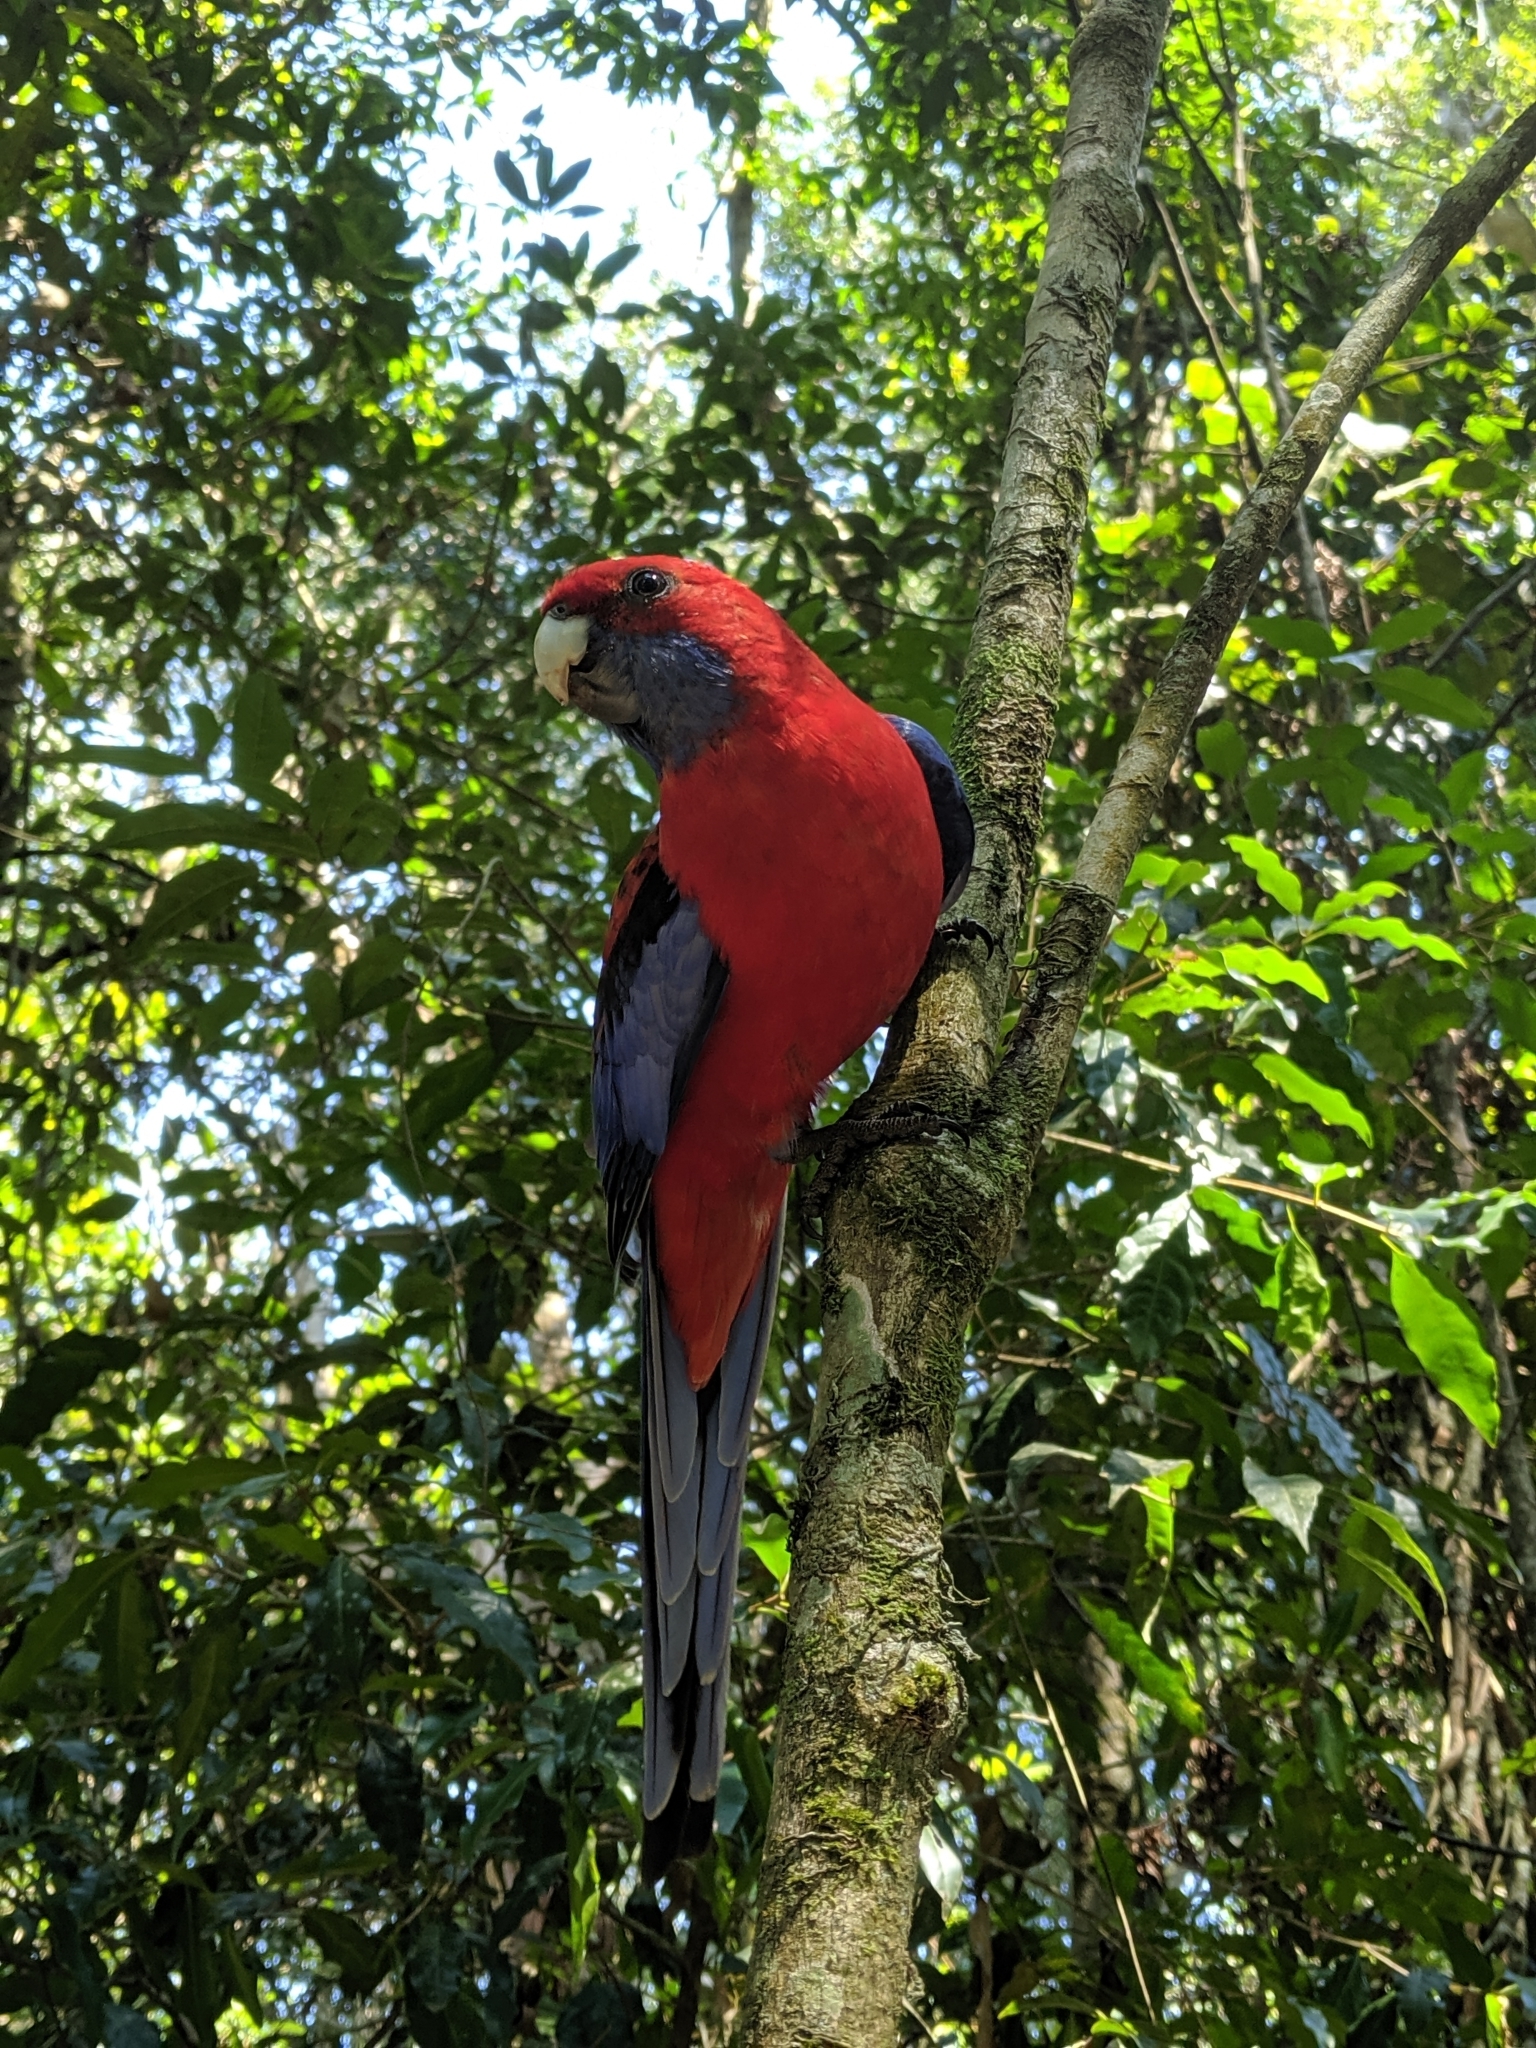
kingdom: Animalia
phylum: Chordata
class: Aves
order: Psittaciformes
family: Psittacidae
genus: Platycercus
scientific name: Platycercus elegans
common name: Crimson rosella
